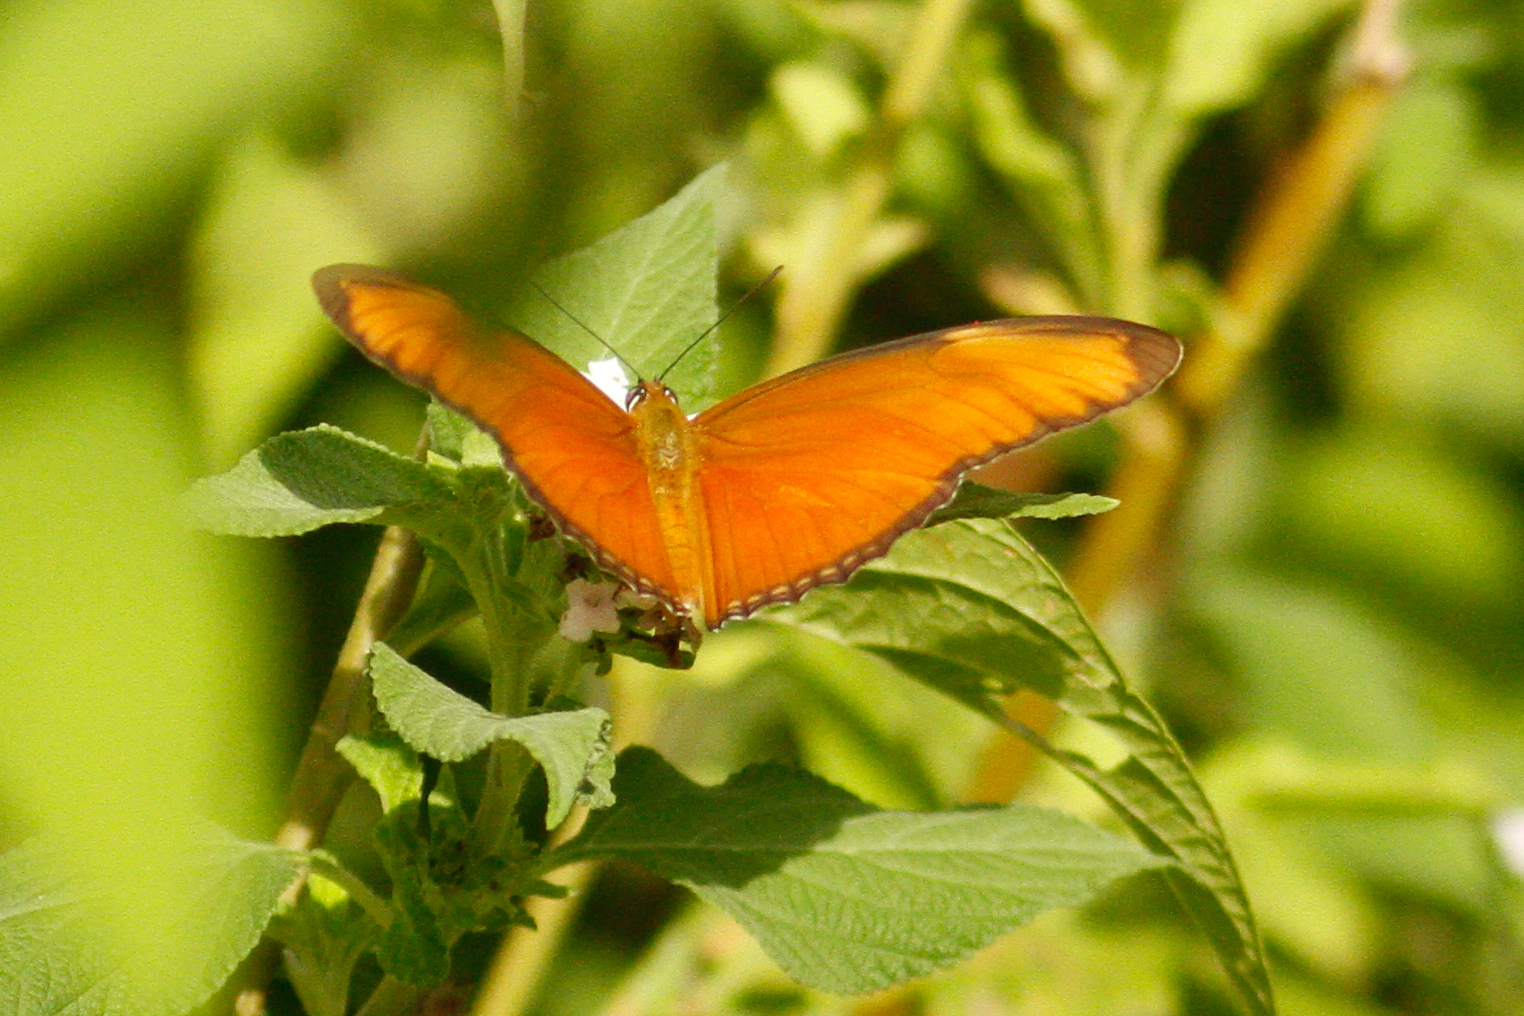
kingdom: Animalia
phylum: Arthropoda
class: Insecta
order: Lepidoptera
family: Nymphalidae
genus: Dryas
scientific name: Dryas iulia
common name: Flambeau
